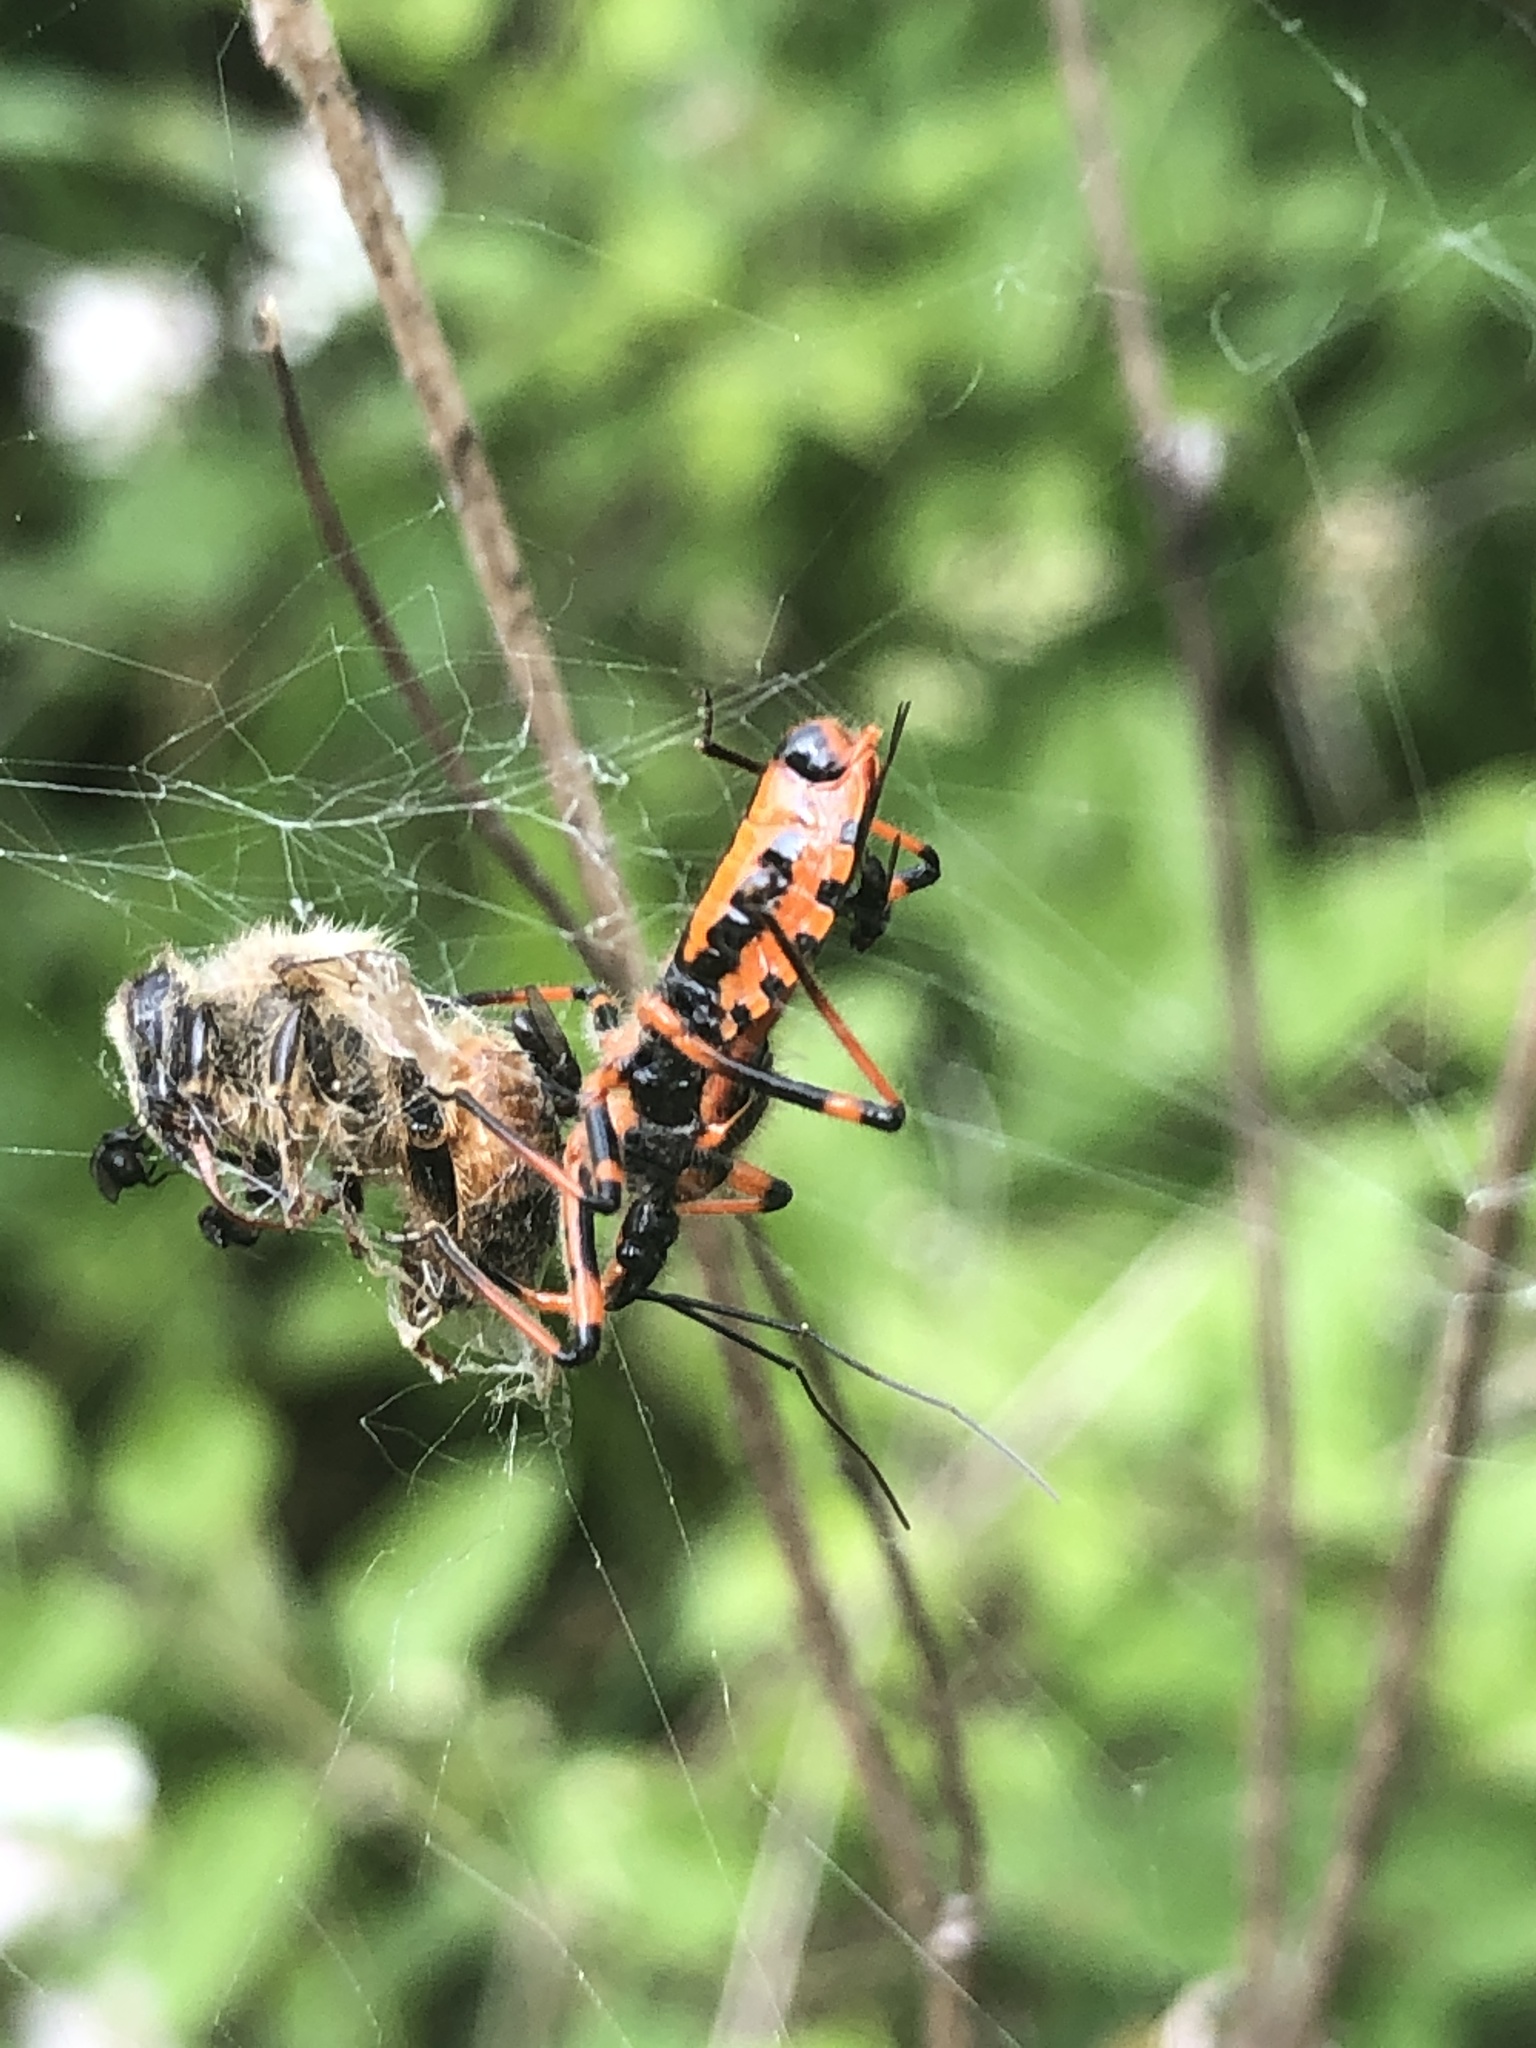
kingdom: Animalia
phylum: Arthropoda
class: Insecta
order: Hemiptera
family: Reduviidae
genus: Rhynocoris
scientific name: Rhynocoris iracundus
